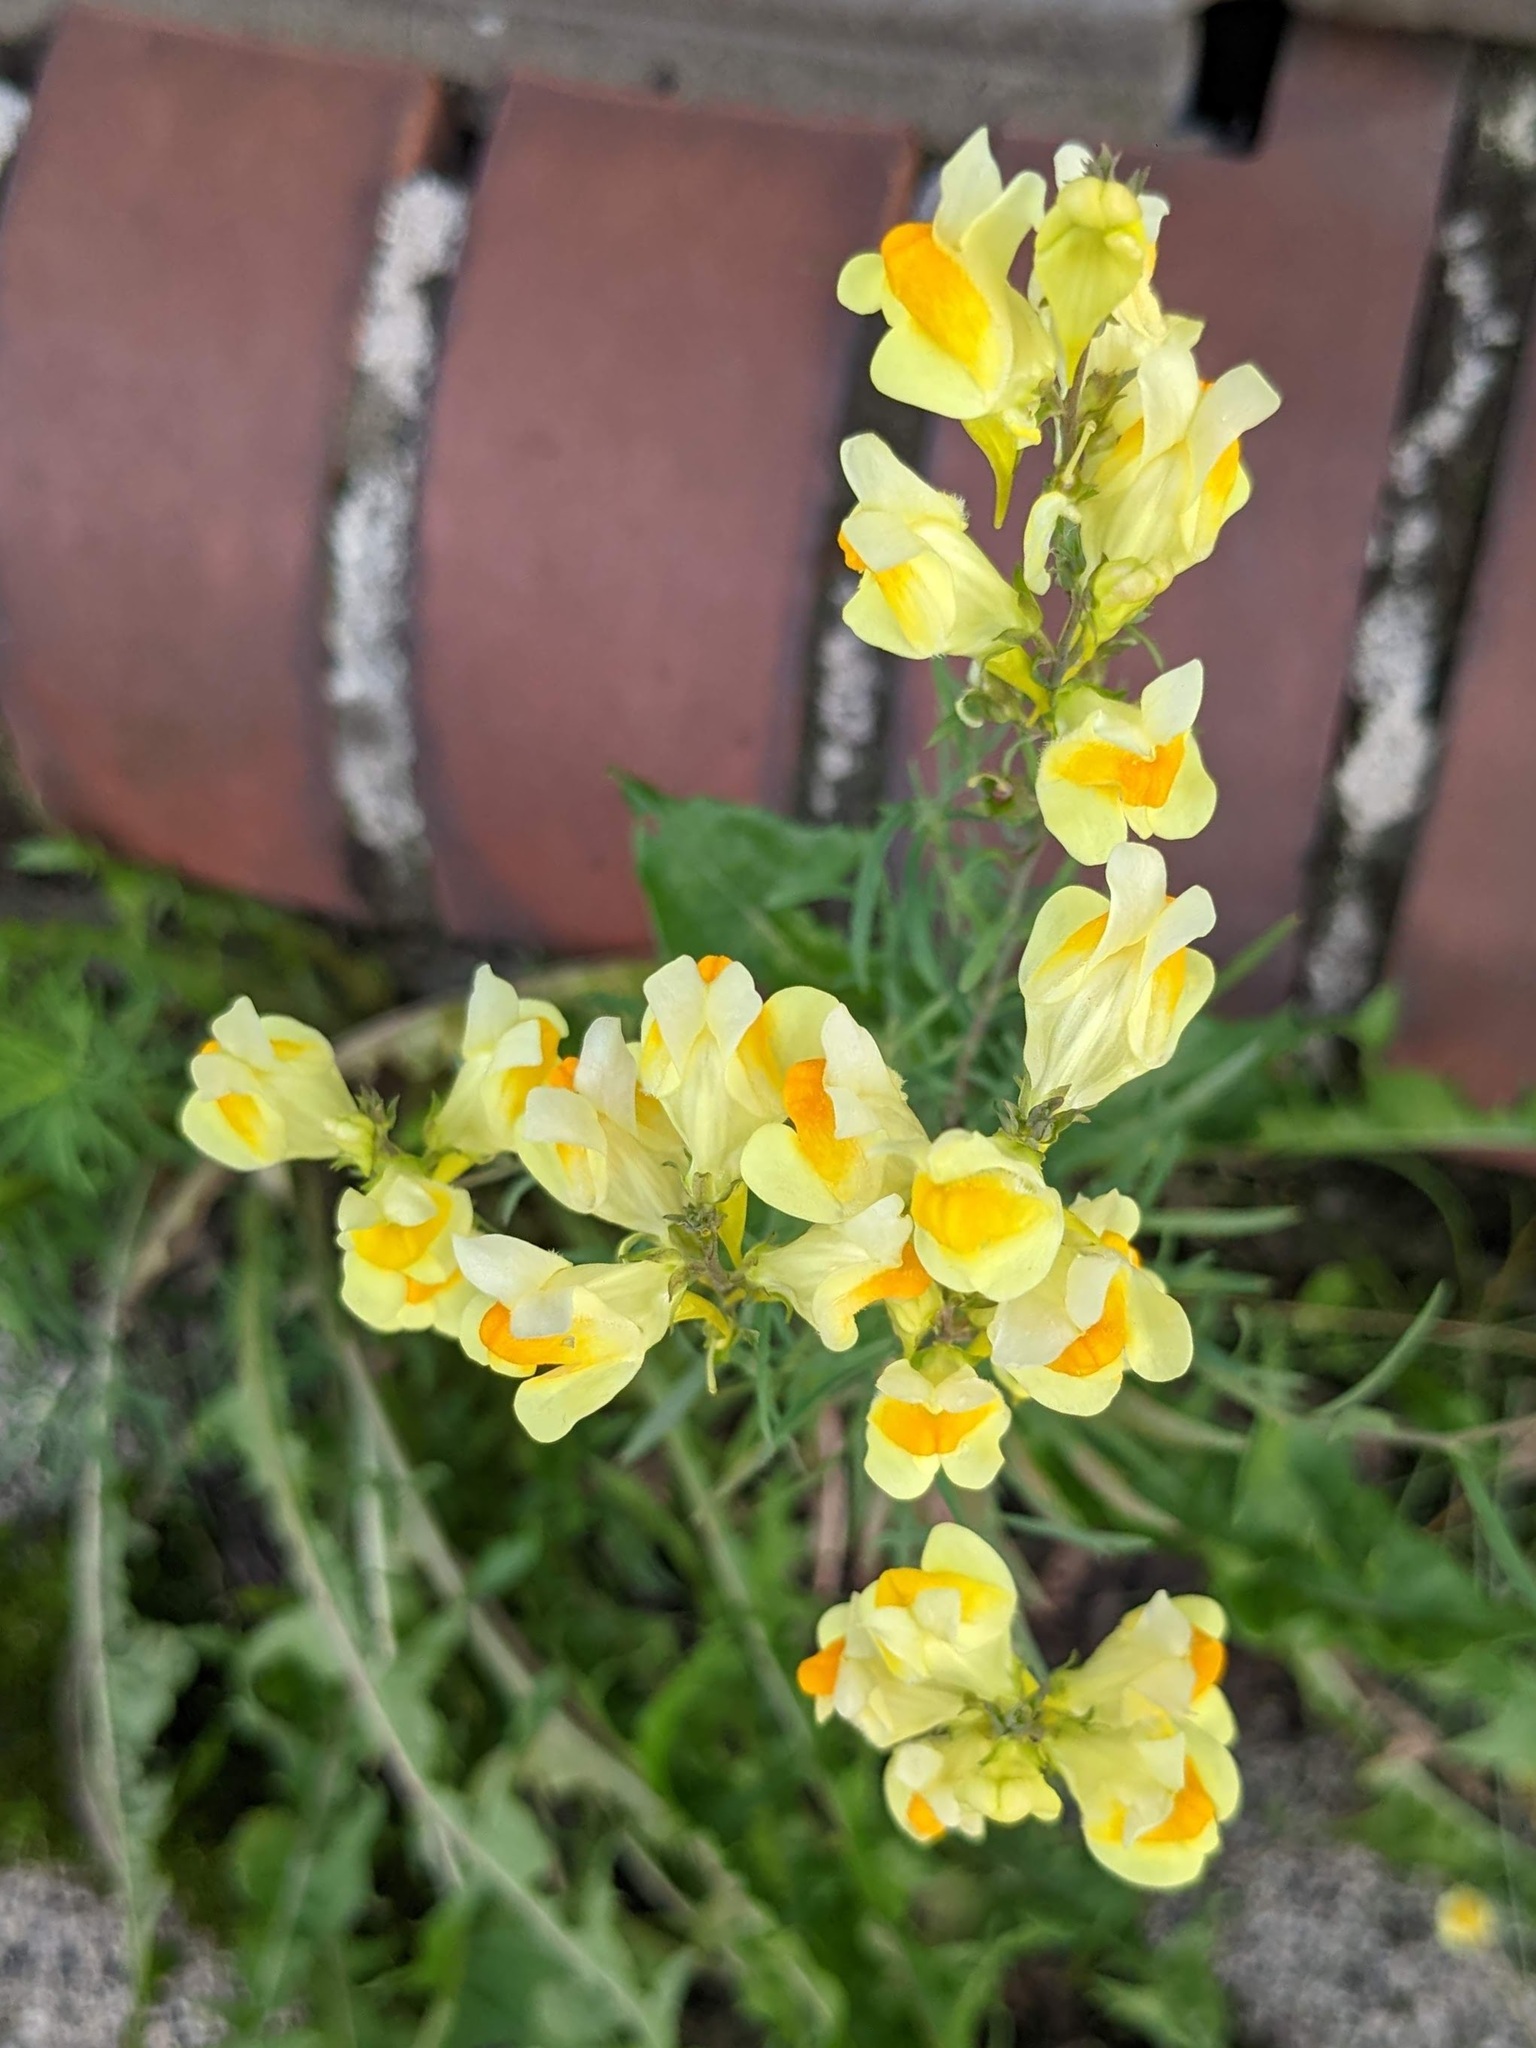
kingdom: Plantae
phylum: Tracheophyta
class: Magnoliopsida
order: Lamiales
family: Plantaginaceae
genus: Linaria
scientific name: Linaria vulgaris
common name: Butter and eggs
